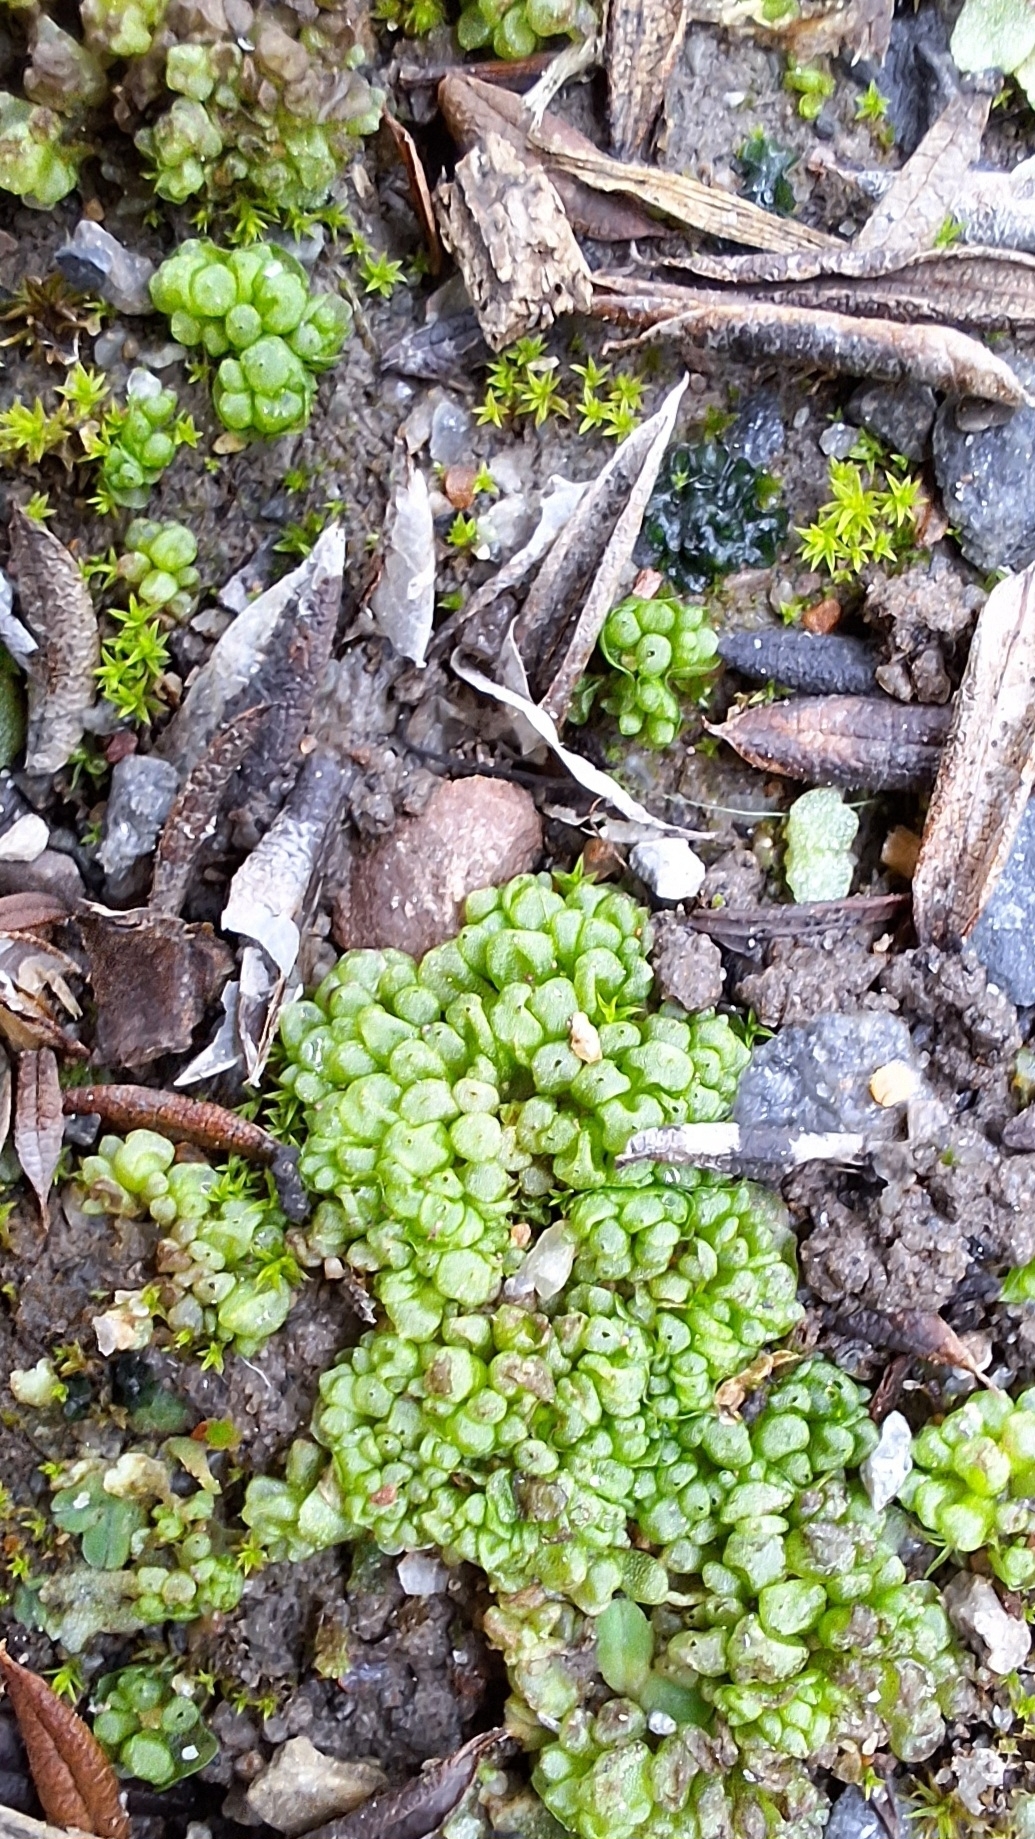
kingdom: Plantae
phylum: Marchantiophyta
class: Marchantiopsida
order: Sphaerocarpales
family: Sphaerocarpaceae
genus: Sphaerocarpos
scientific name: Sphaerocarpos texanus
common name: Texas balloonwort
